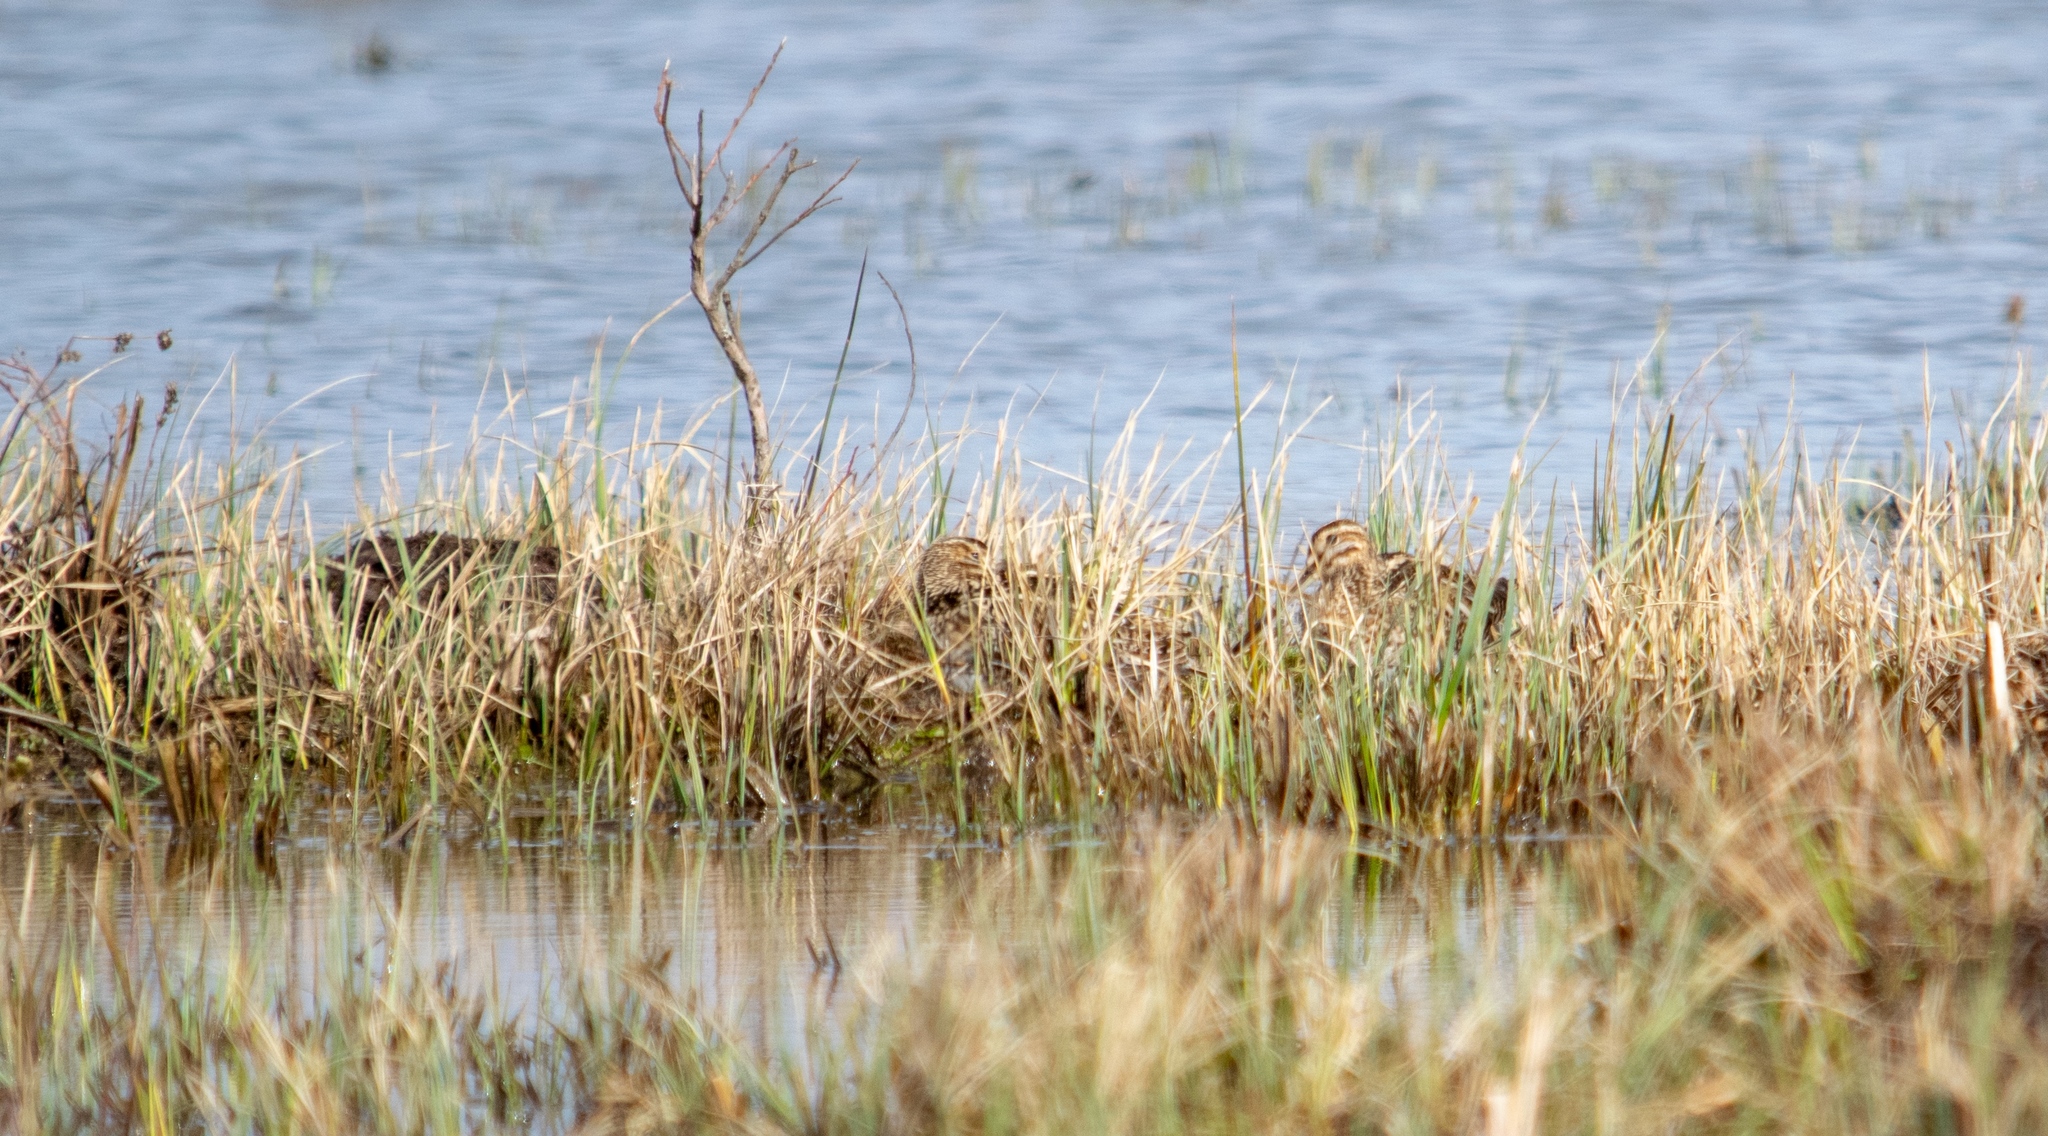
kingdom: Animalia
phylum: Chordata
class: Aves
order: Charadriiformes
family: Scolopacidae
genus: Gallinago
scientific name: Gallinago gallinago
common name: Common snipe
